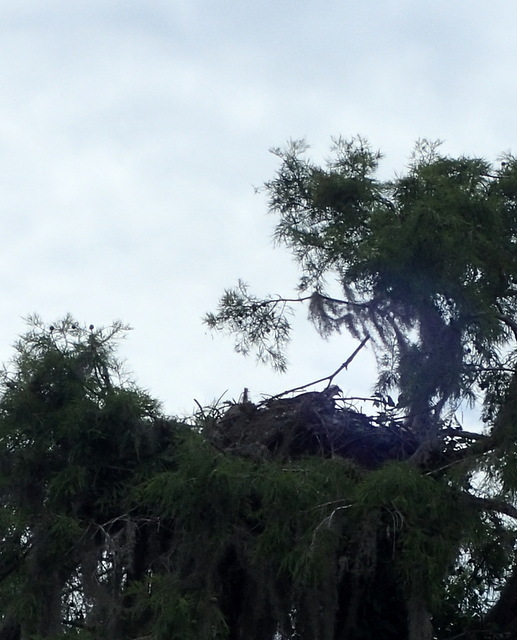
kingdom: Animalia
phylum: Chordata
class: Aves
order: Accipitriformes
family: Pandionidae
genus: Pandion
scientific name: Pandion haliaetus
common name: Osprey
